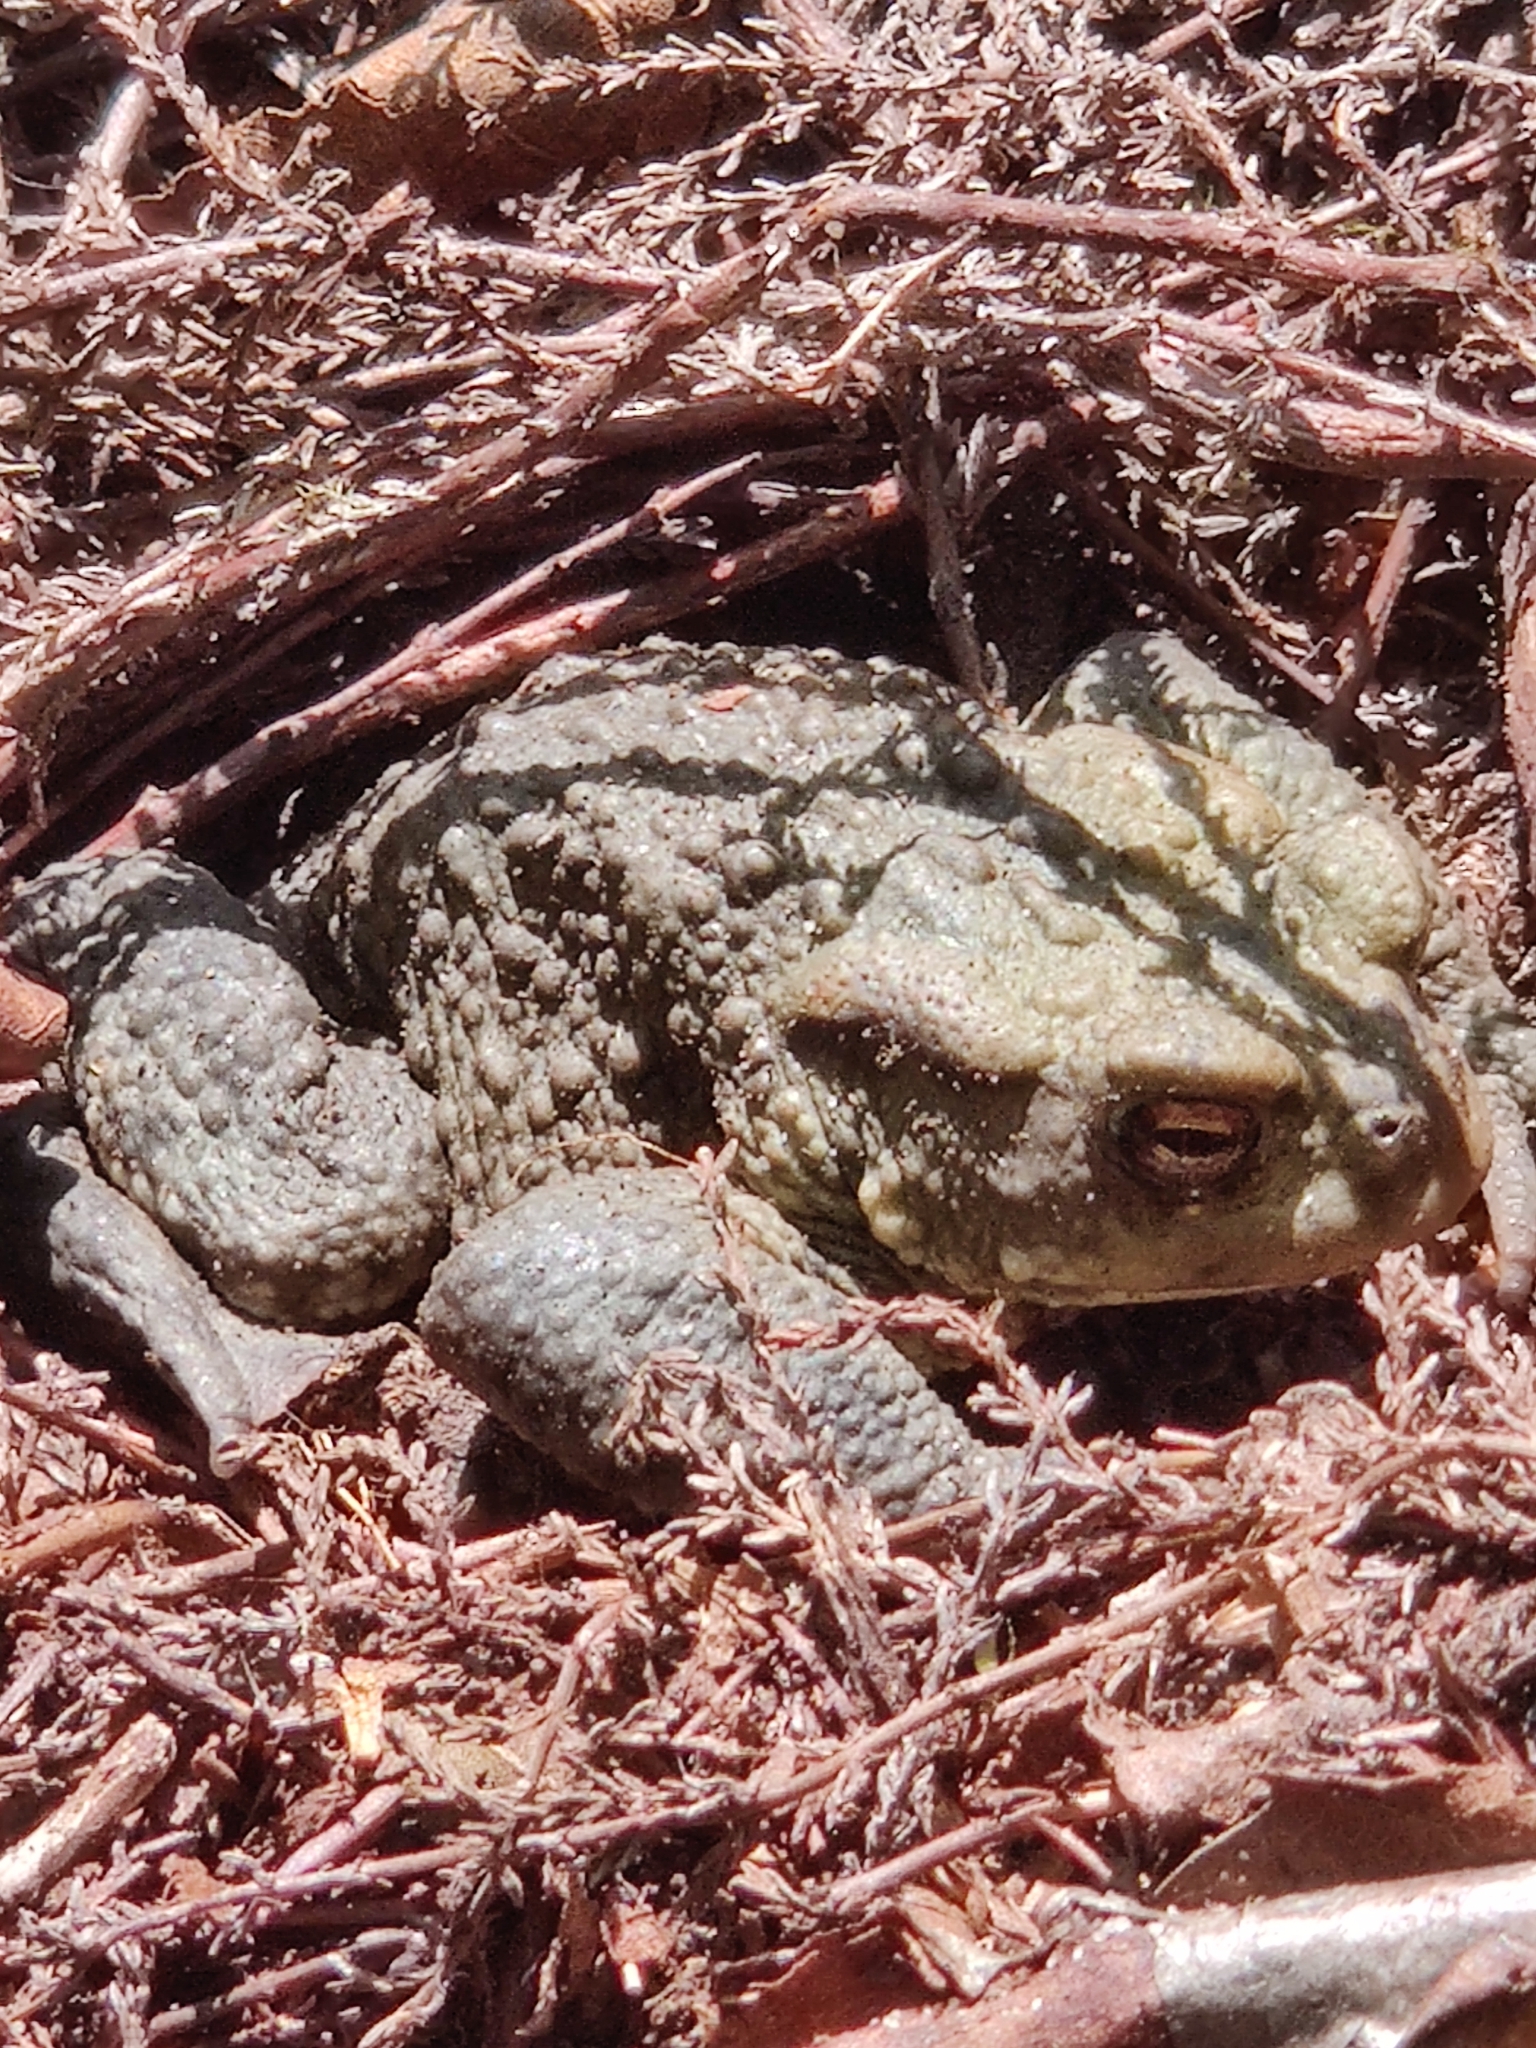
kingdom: Animalia
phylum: Chordata
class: Amphibia
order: Anura
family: Bufonidae
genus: Bufo
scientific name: Bufo bufo
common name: Common toad
